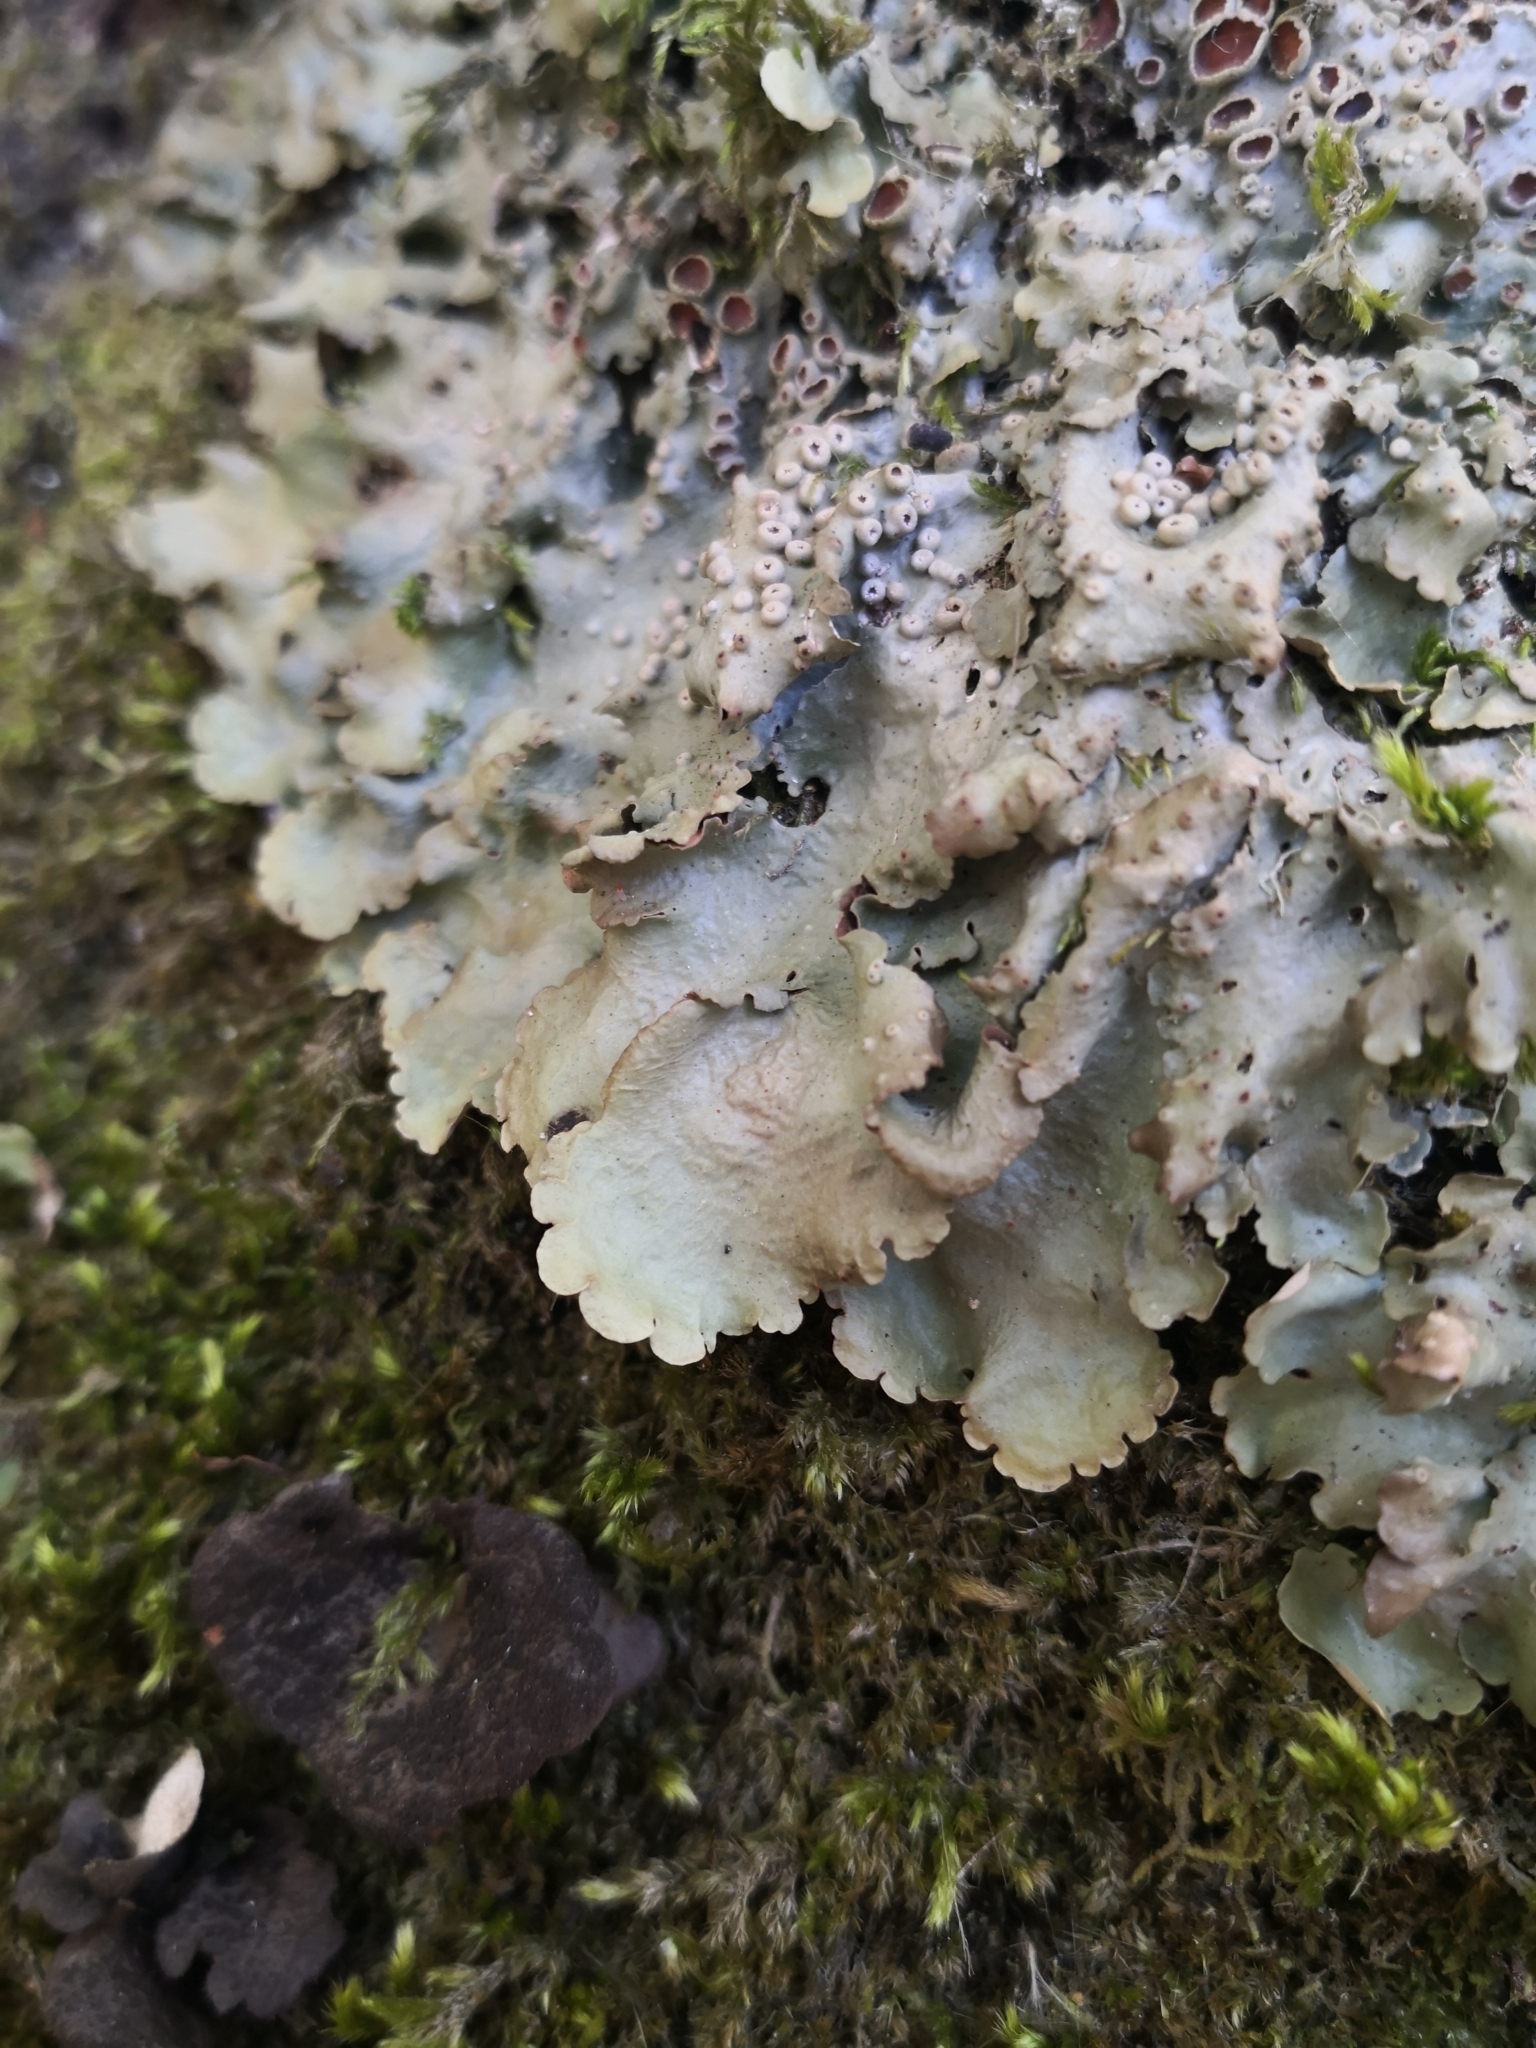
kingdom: Fungi
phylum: Ascomycota
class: Lecanoromycetes
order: Peltigerales
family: Lobariaceae
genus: Ricasolia
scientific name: Ricasolia virens
